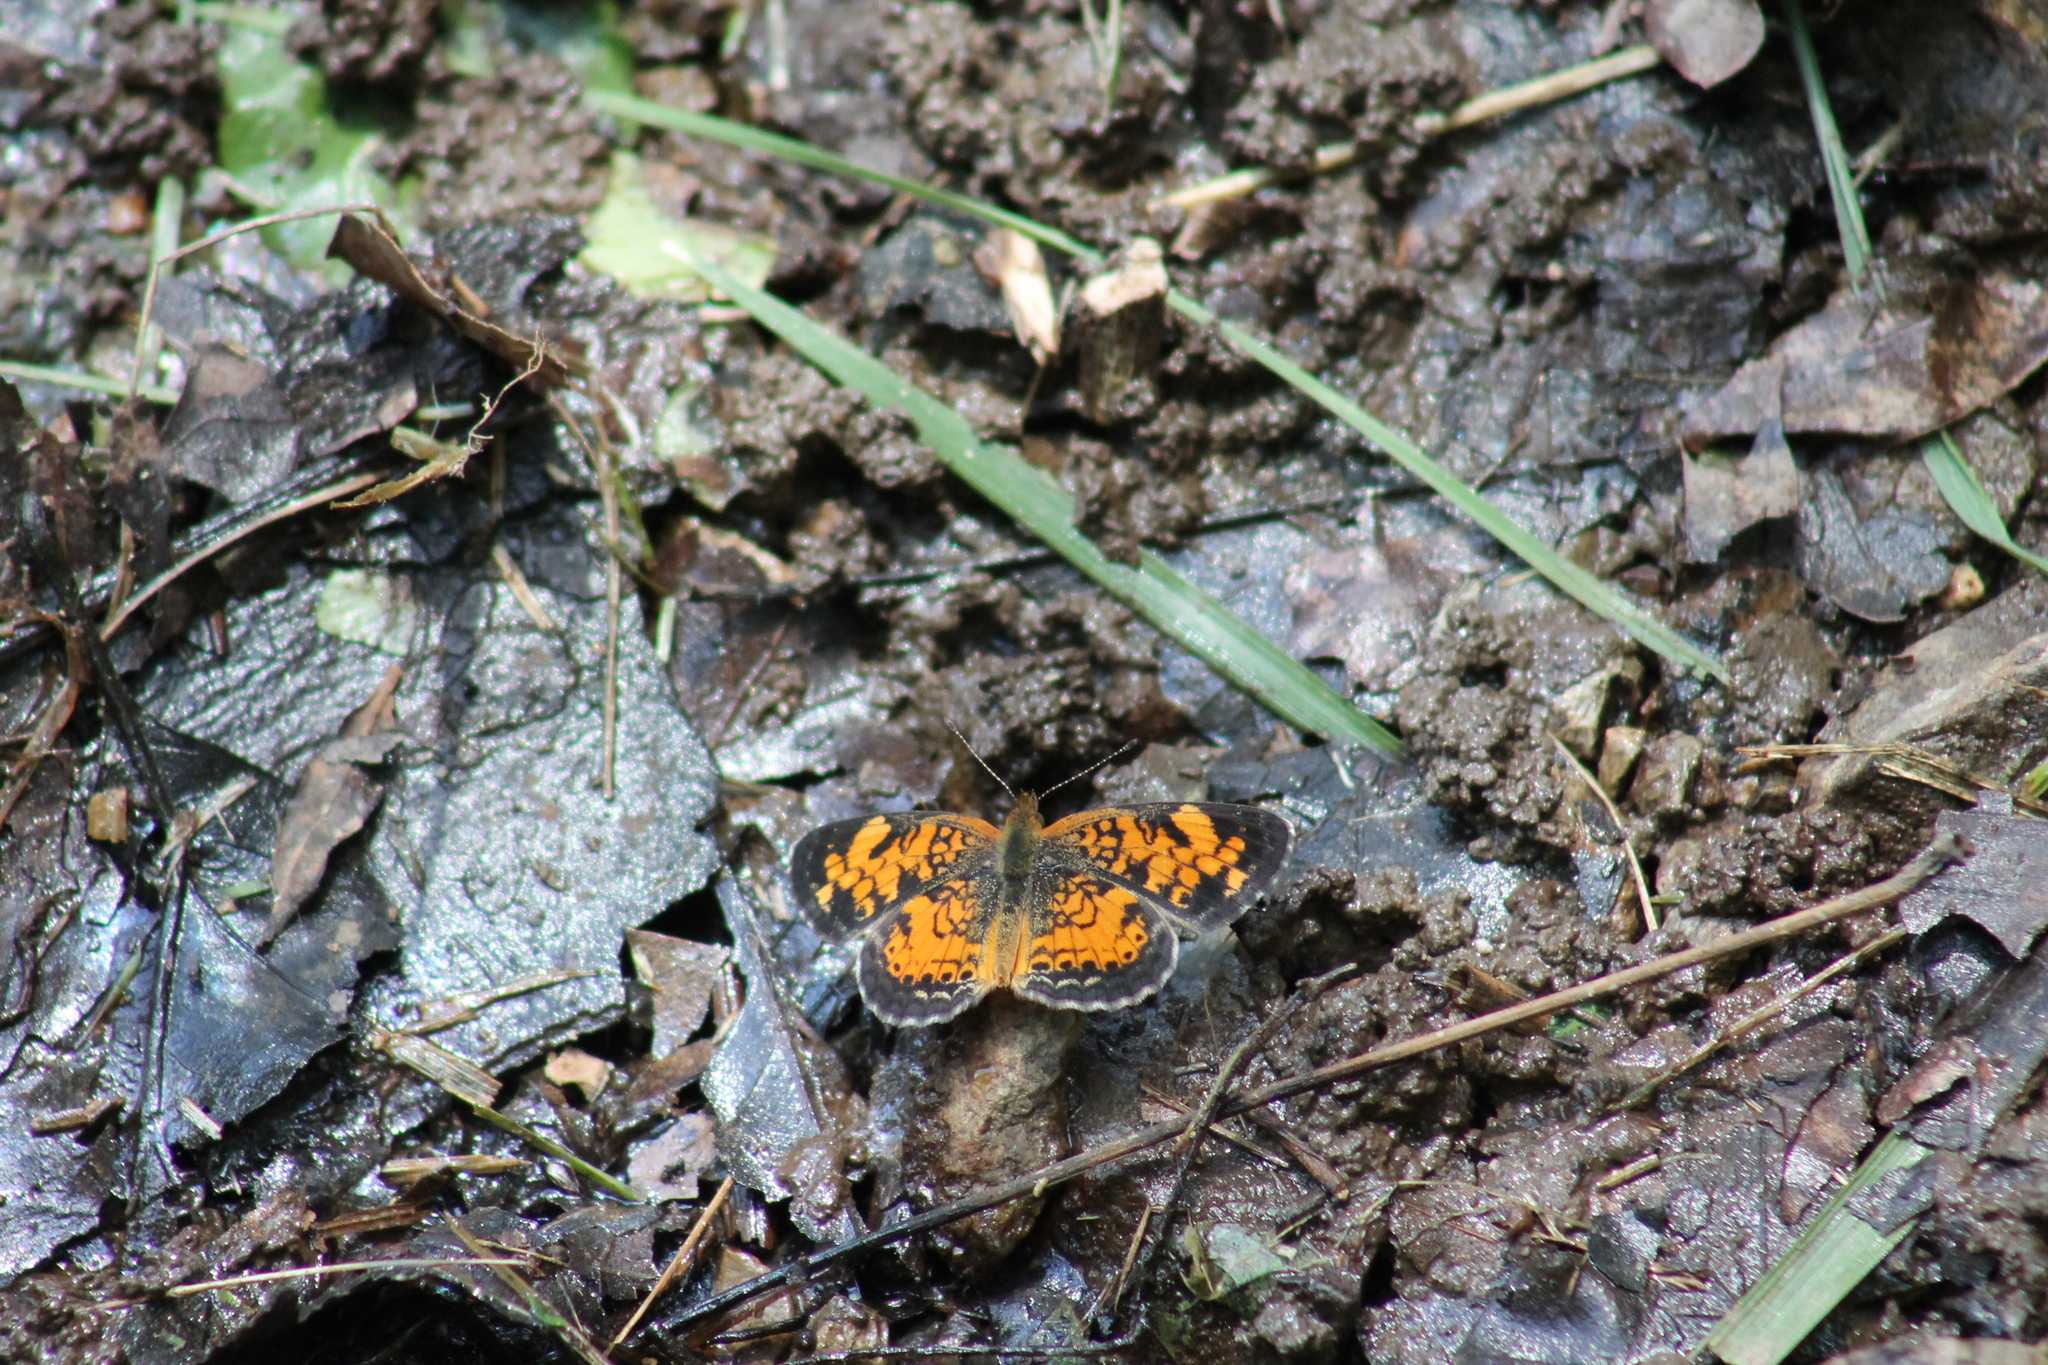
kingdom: Animalia
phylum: Arthropoda
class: Insecta
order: Lepidoptera
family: Nymphalidae
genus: Phyciodes
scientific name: Phyciodes tharos
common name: Pearl crescent
